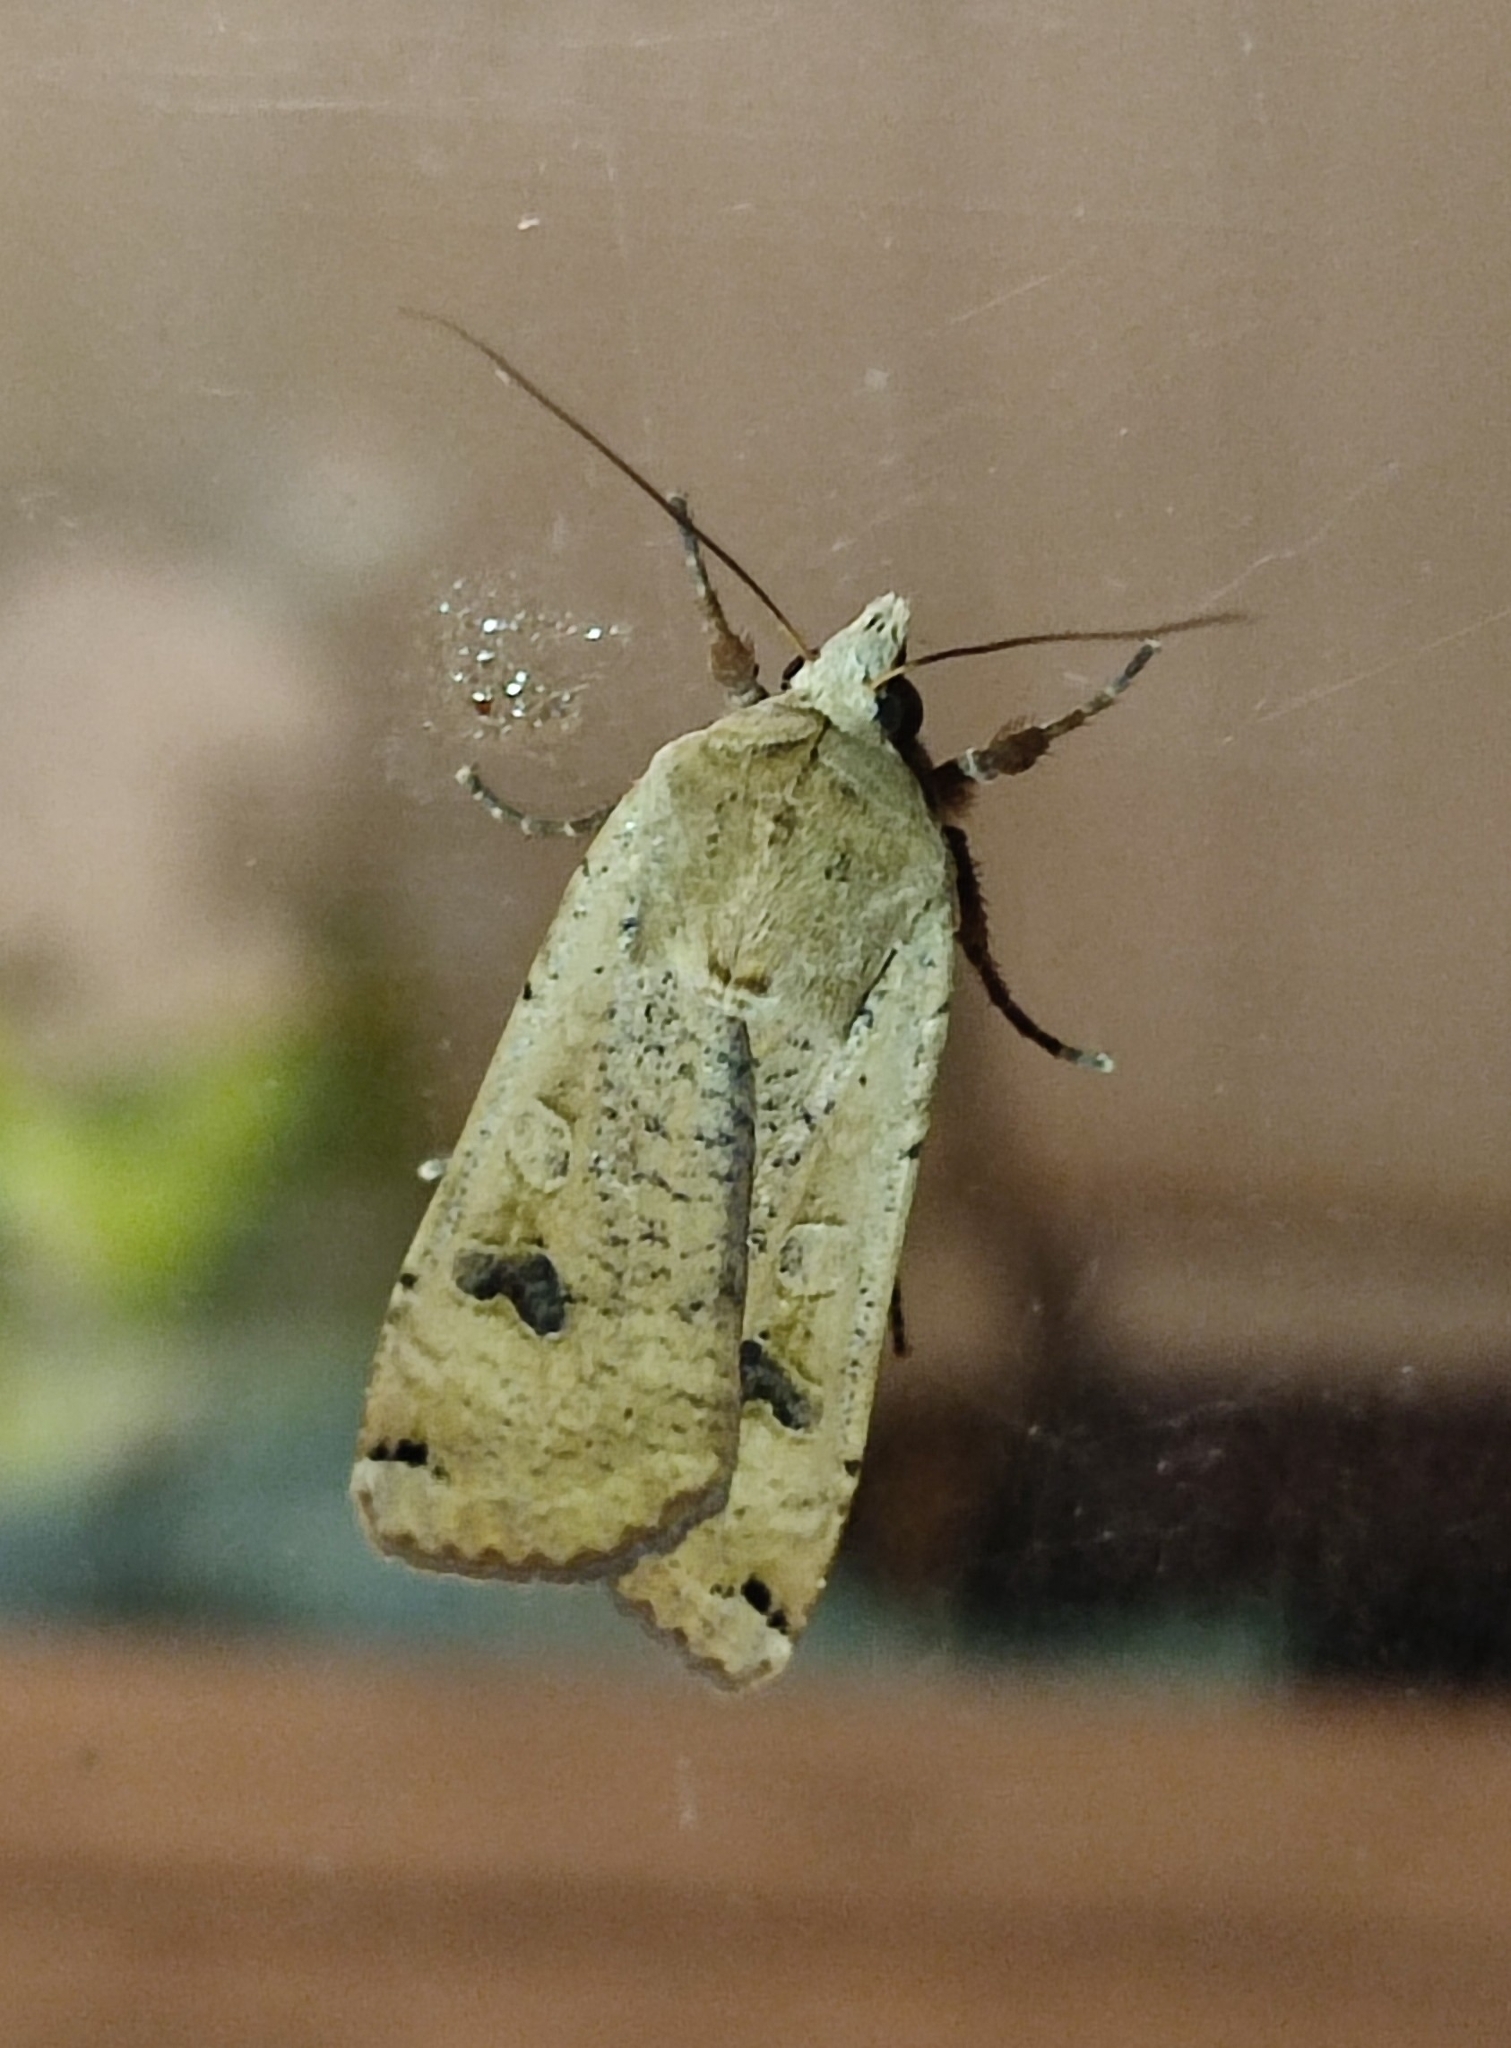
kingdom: Animalia
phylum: Arthropoda
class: Insecta
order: Lepidoptera
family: Noctuidae
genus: Noctua
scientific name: Noctua pronuba
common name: Large yellow underwing
